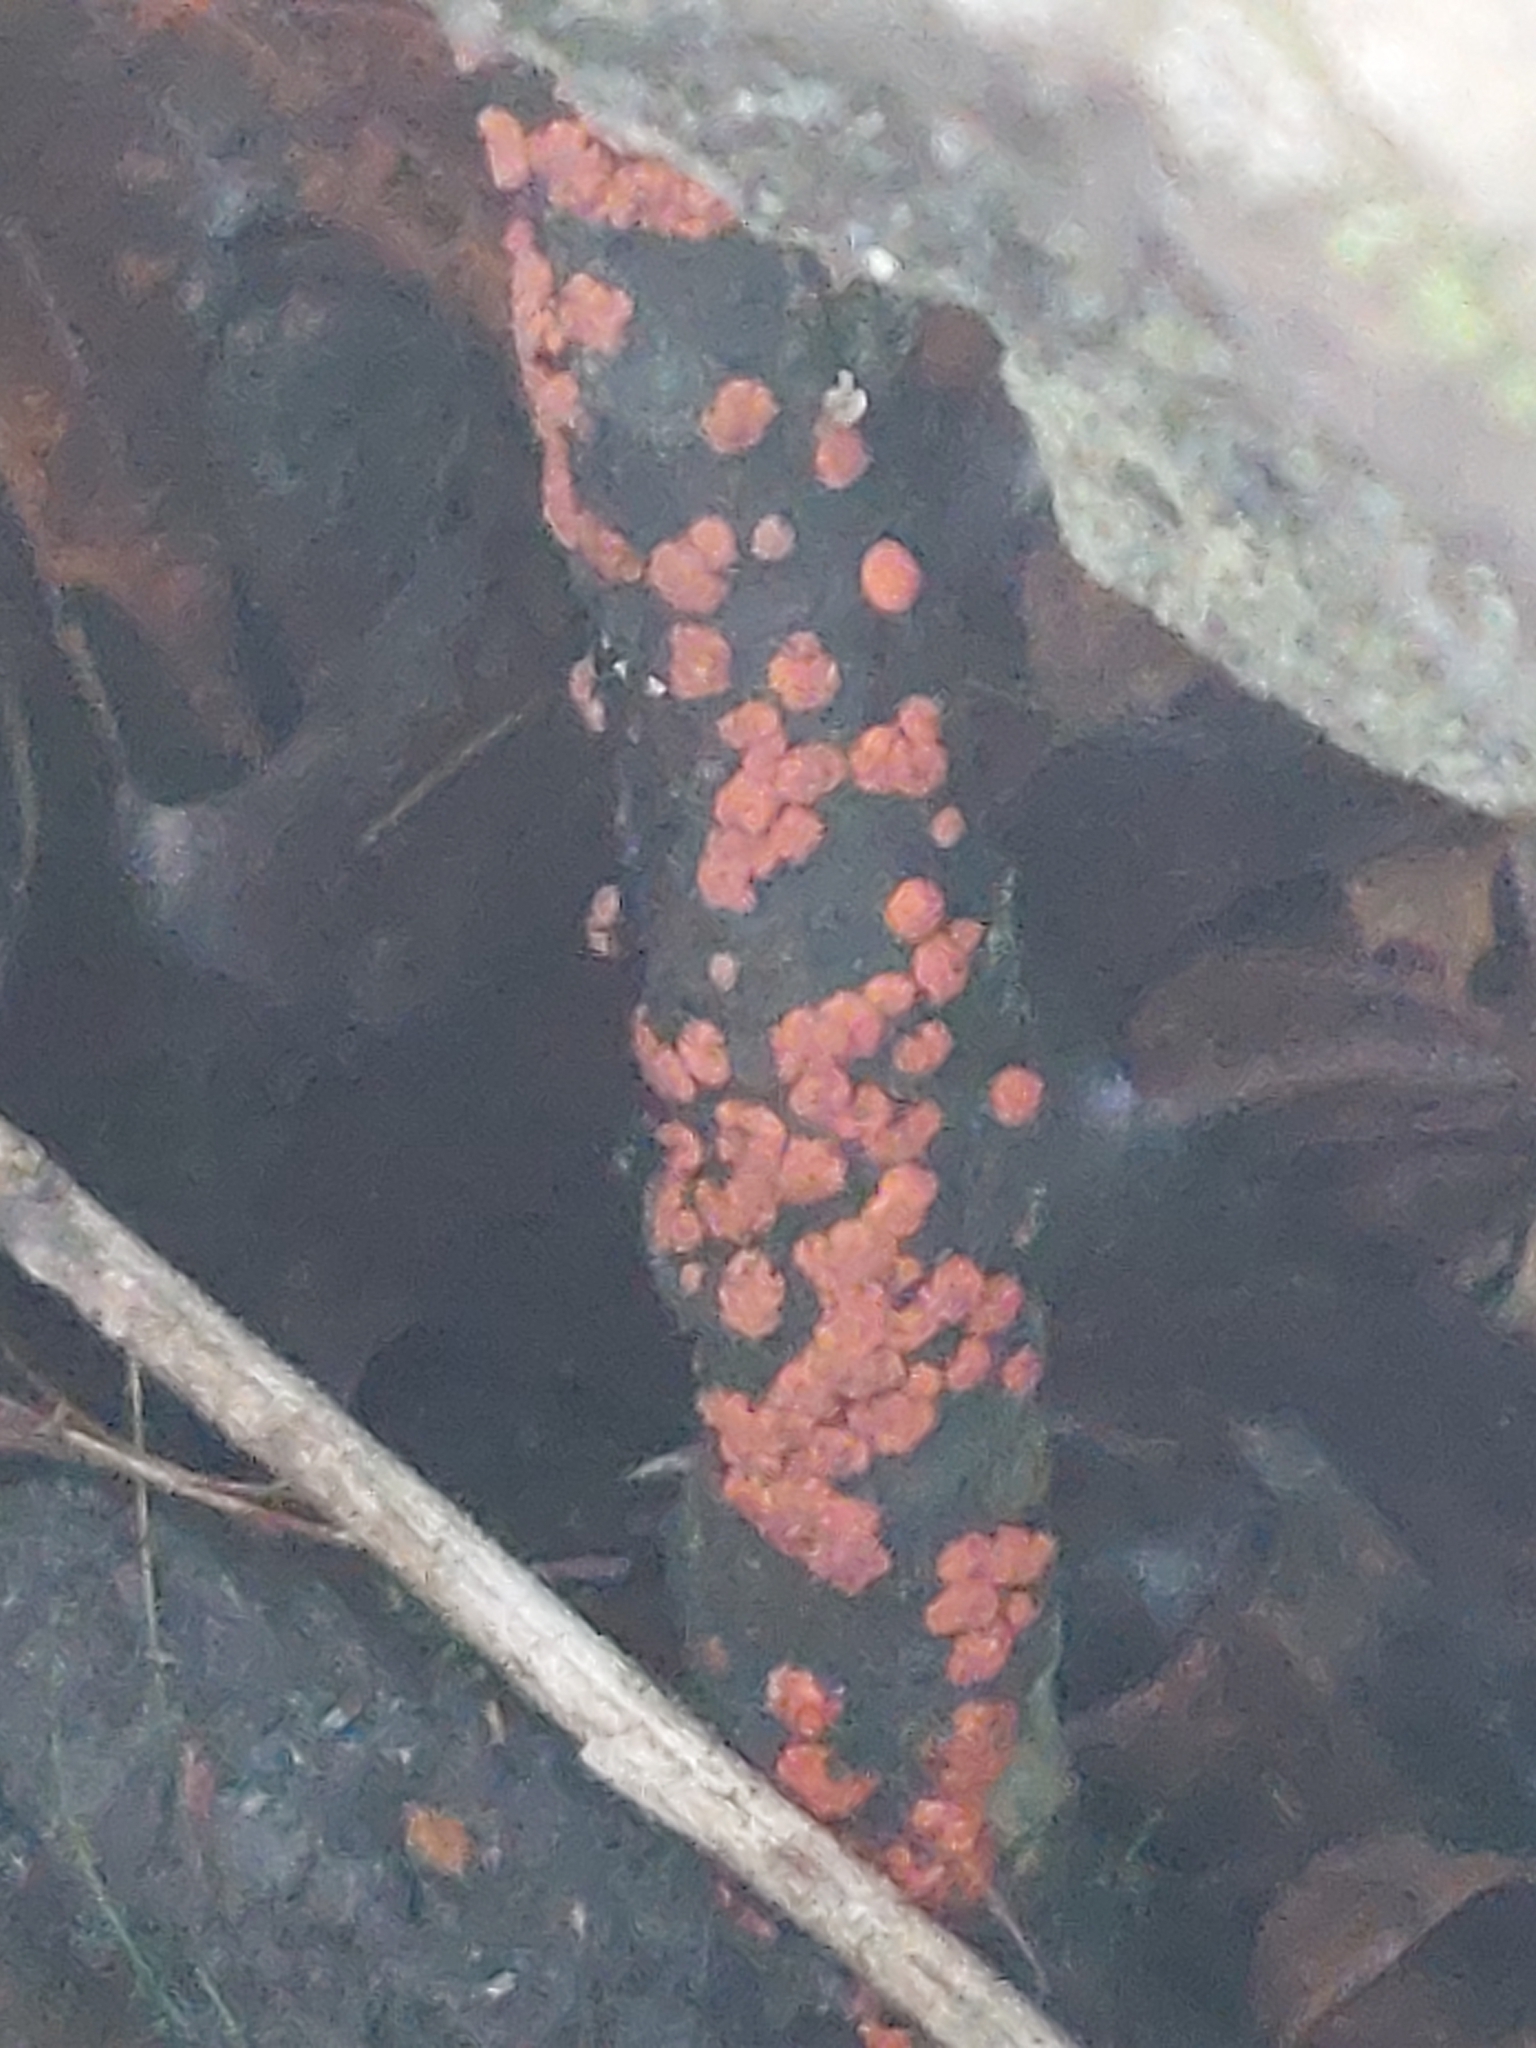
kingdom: Fungi
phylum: Basidiomycota
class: Agaricomycetes
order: Russulales
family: Peniophoraceae
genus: Peniophora
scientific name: Peniophora rufa
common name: Red tree brain fungus
